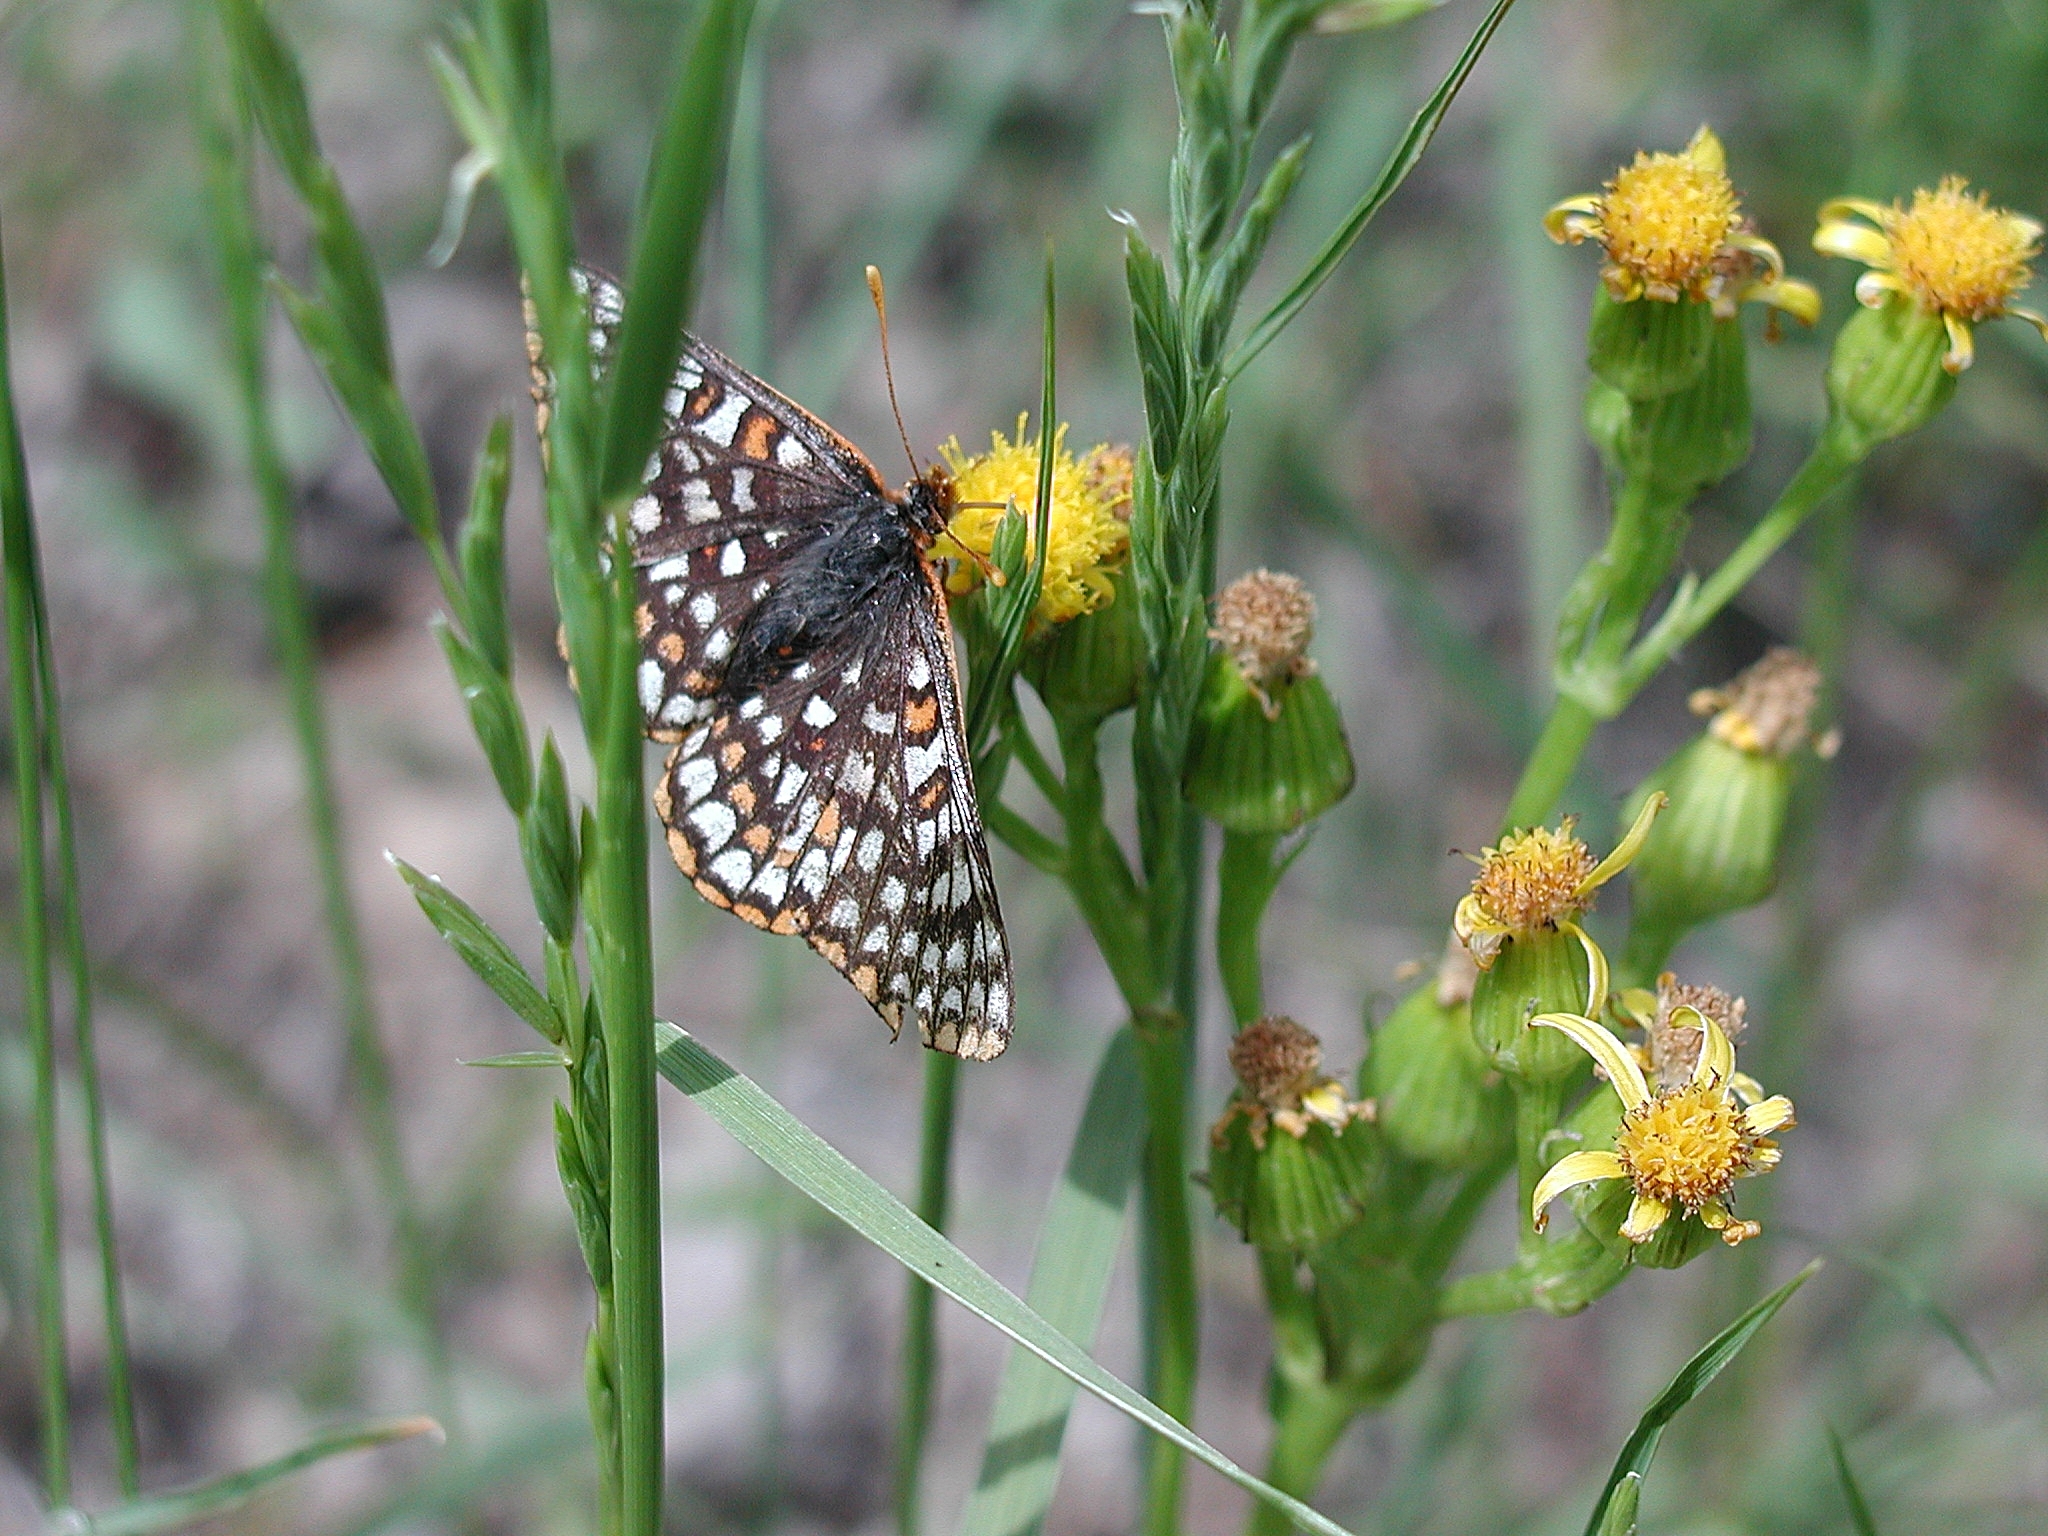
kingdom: Animalia
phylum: Arthropoda
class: Insecta
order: Lepidoptera
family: Nymphalidae
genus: Occidryas
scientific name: Occidryas anicia
